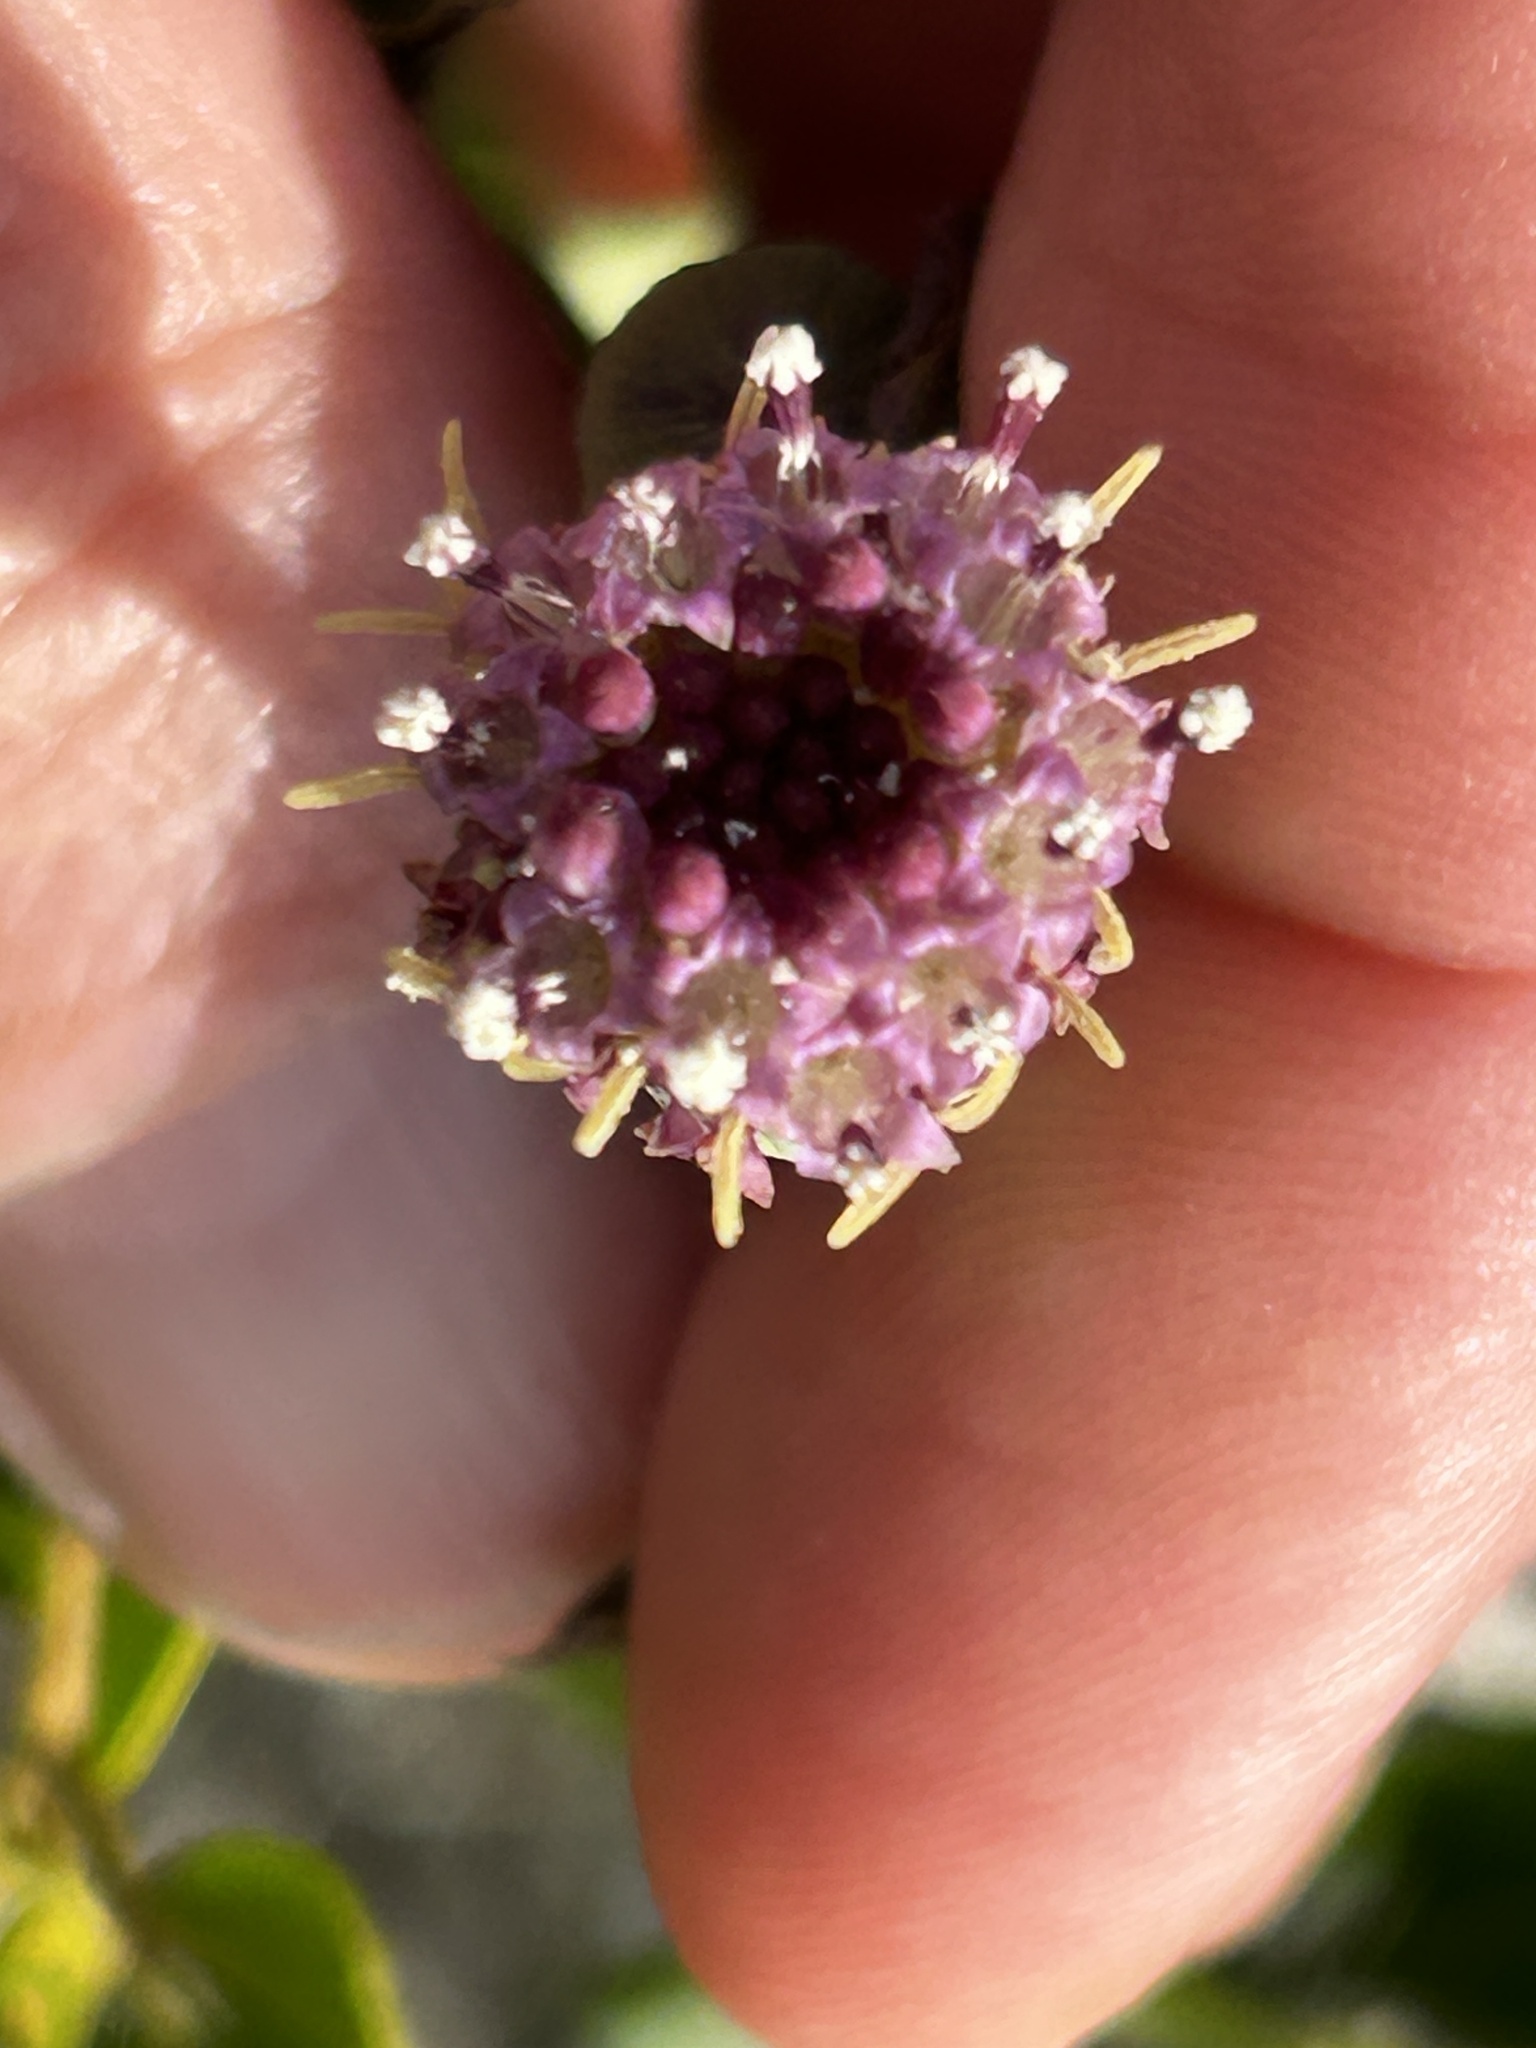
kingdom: Plantae
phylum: Tracheophyta
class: Magnoliopsida
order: Asterales
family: Asteraceae
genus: Othonna
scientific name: Othonna undulosa
